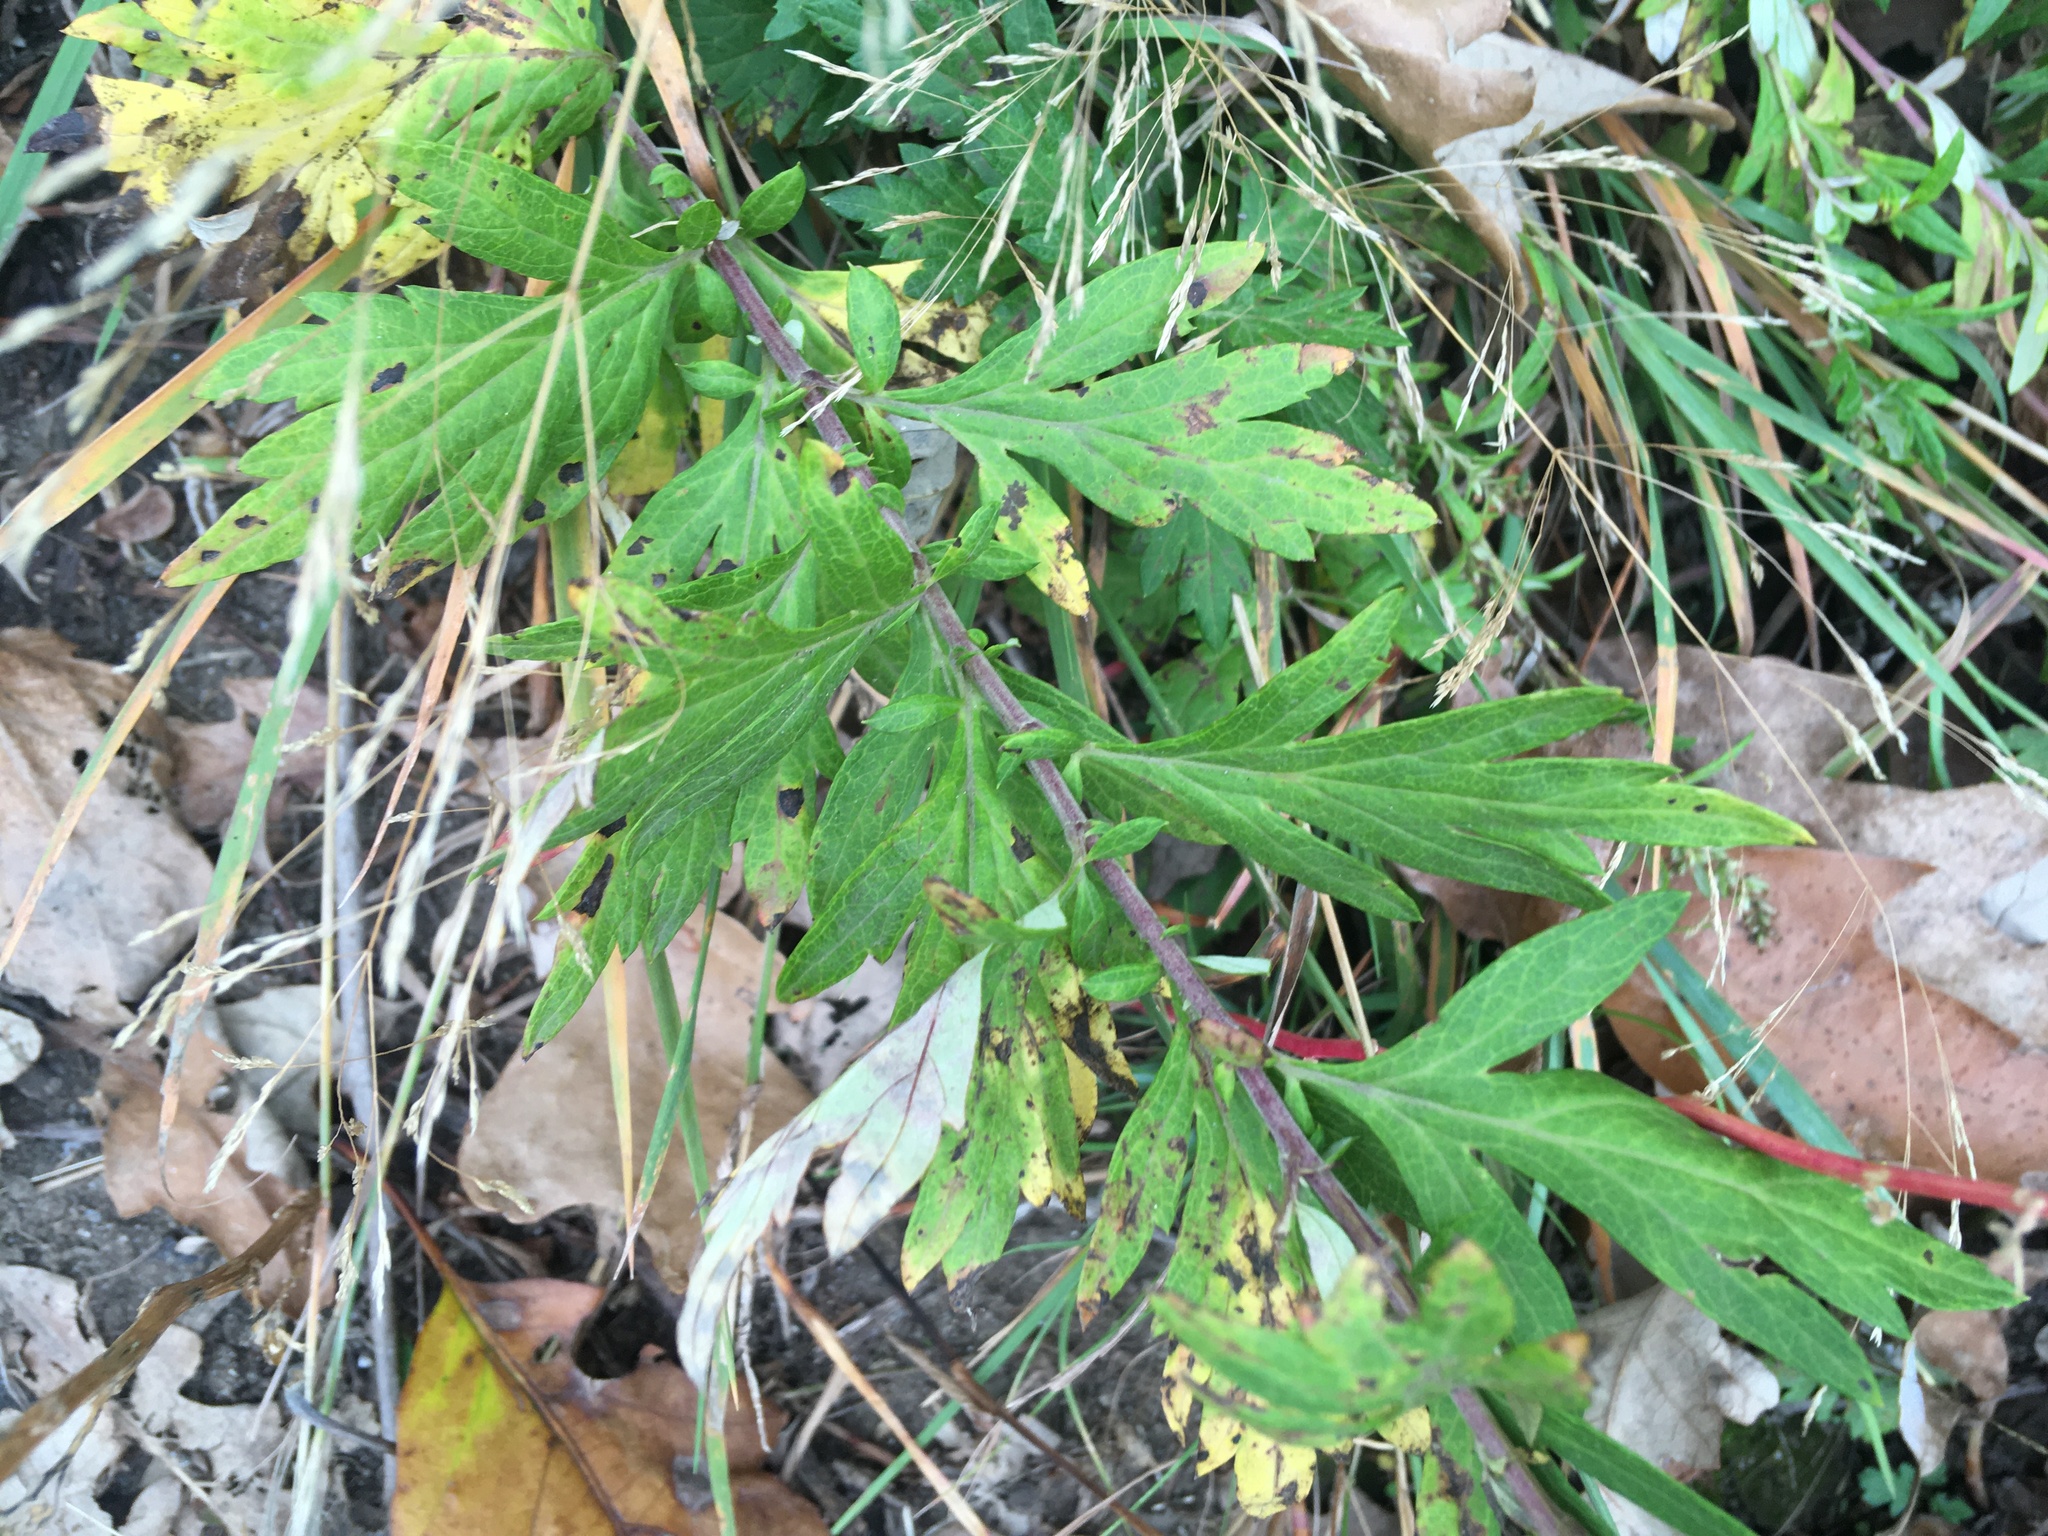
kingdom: Plantae
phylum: Tracheophyta
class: Magnoliopsida
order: Asterales
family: Asteraceae
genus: Artemisia
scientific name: Artemisia vulgaris
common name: Mugwort
